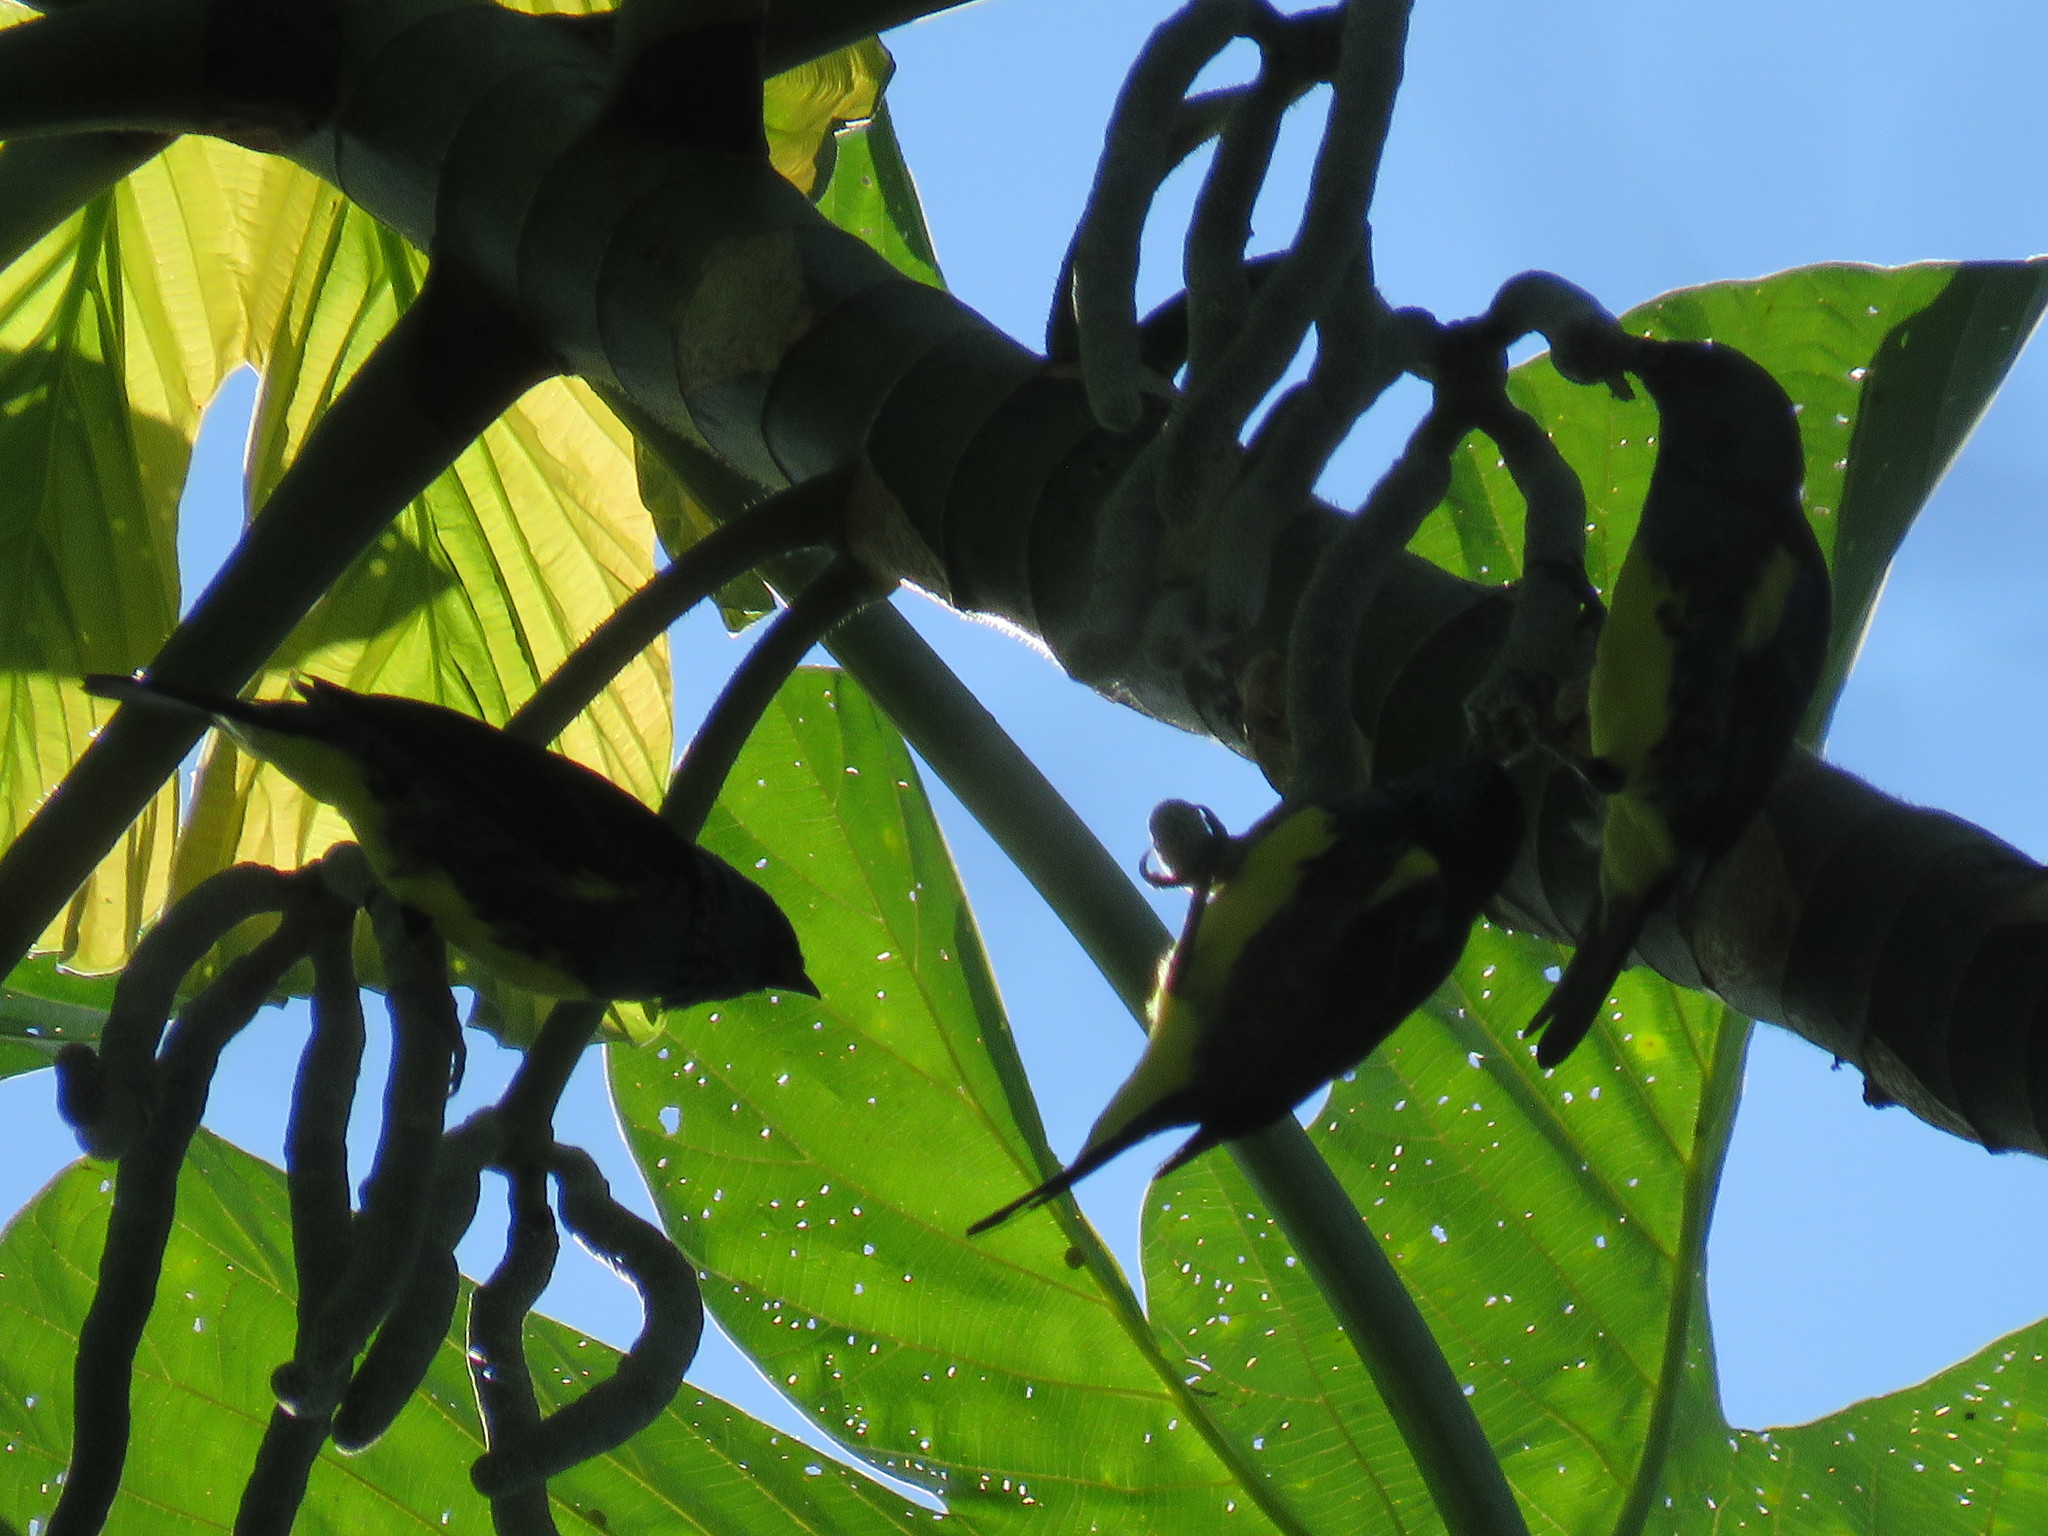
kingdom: Animalia
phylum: Chordata
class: Aves
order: Passeriformes
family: Thraupidae
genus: Tangara
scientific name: Tangara mexicana
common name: Turquoise tanager
